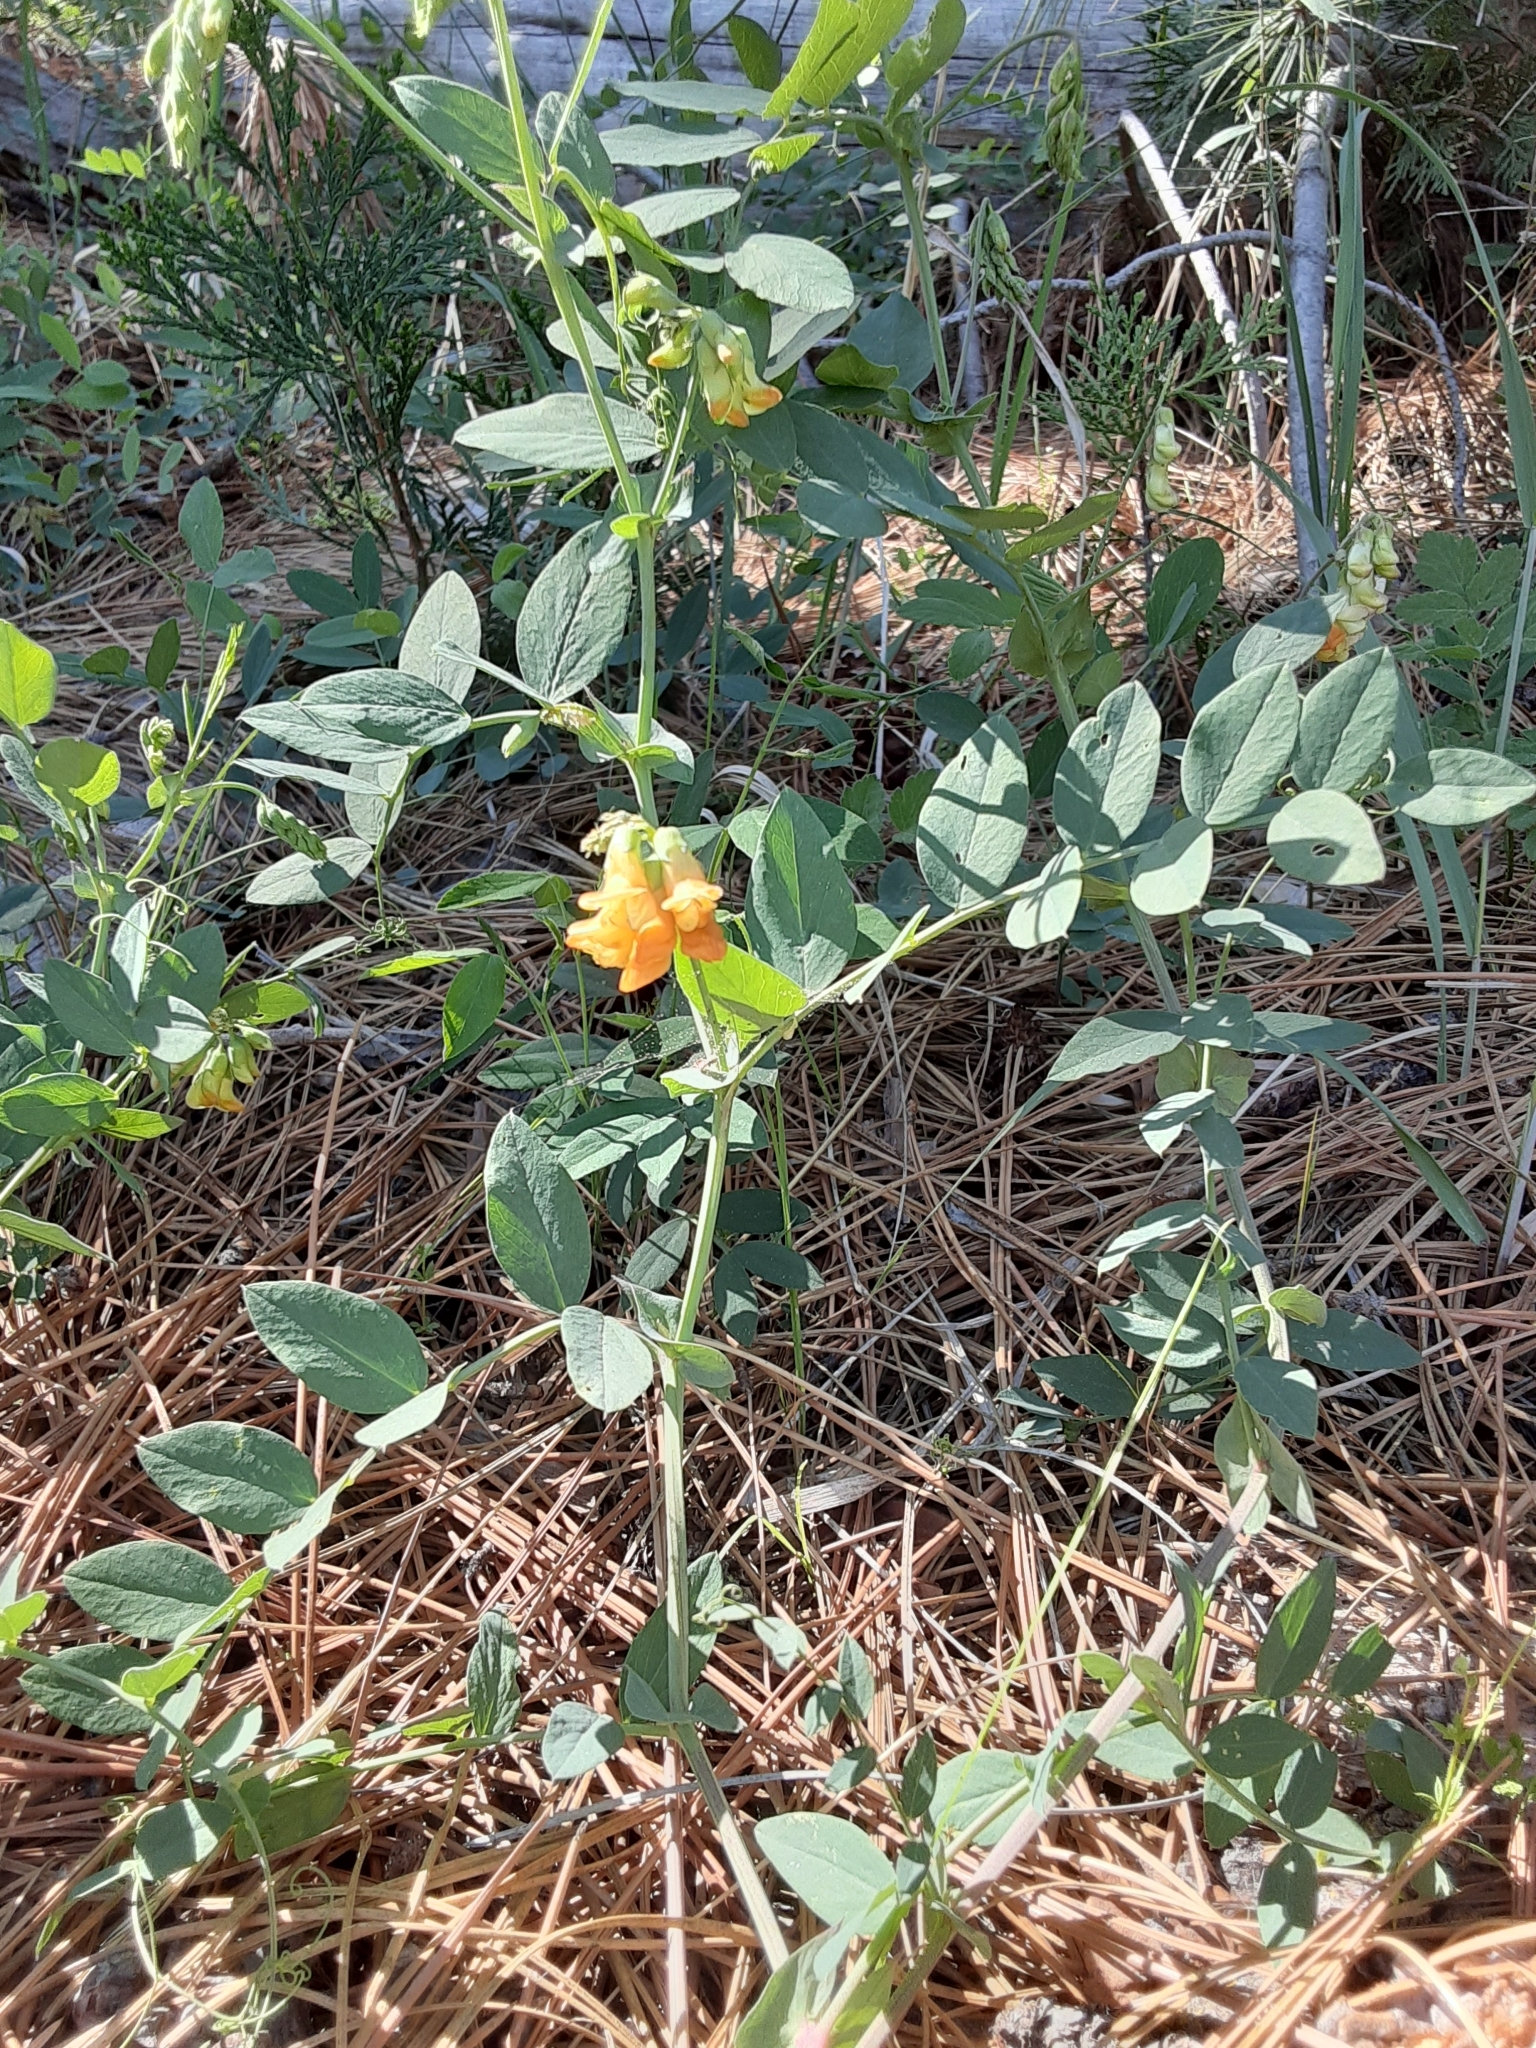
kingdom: Plantae
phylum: Tracheophyta
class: Magnoliopsida
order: Fabales
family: Fabaceae
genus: Lathyrus
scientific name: Lathyrus sulphureus
